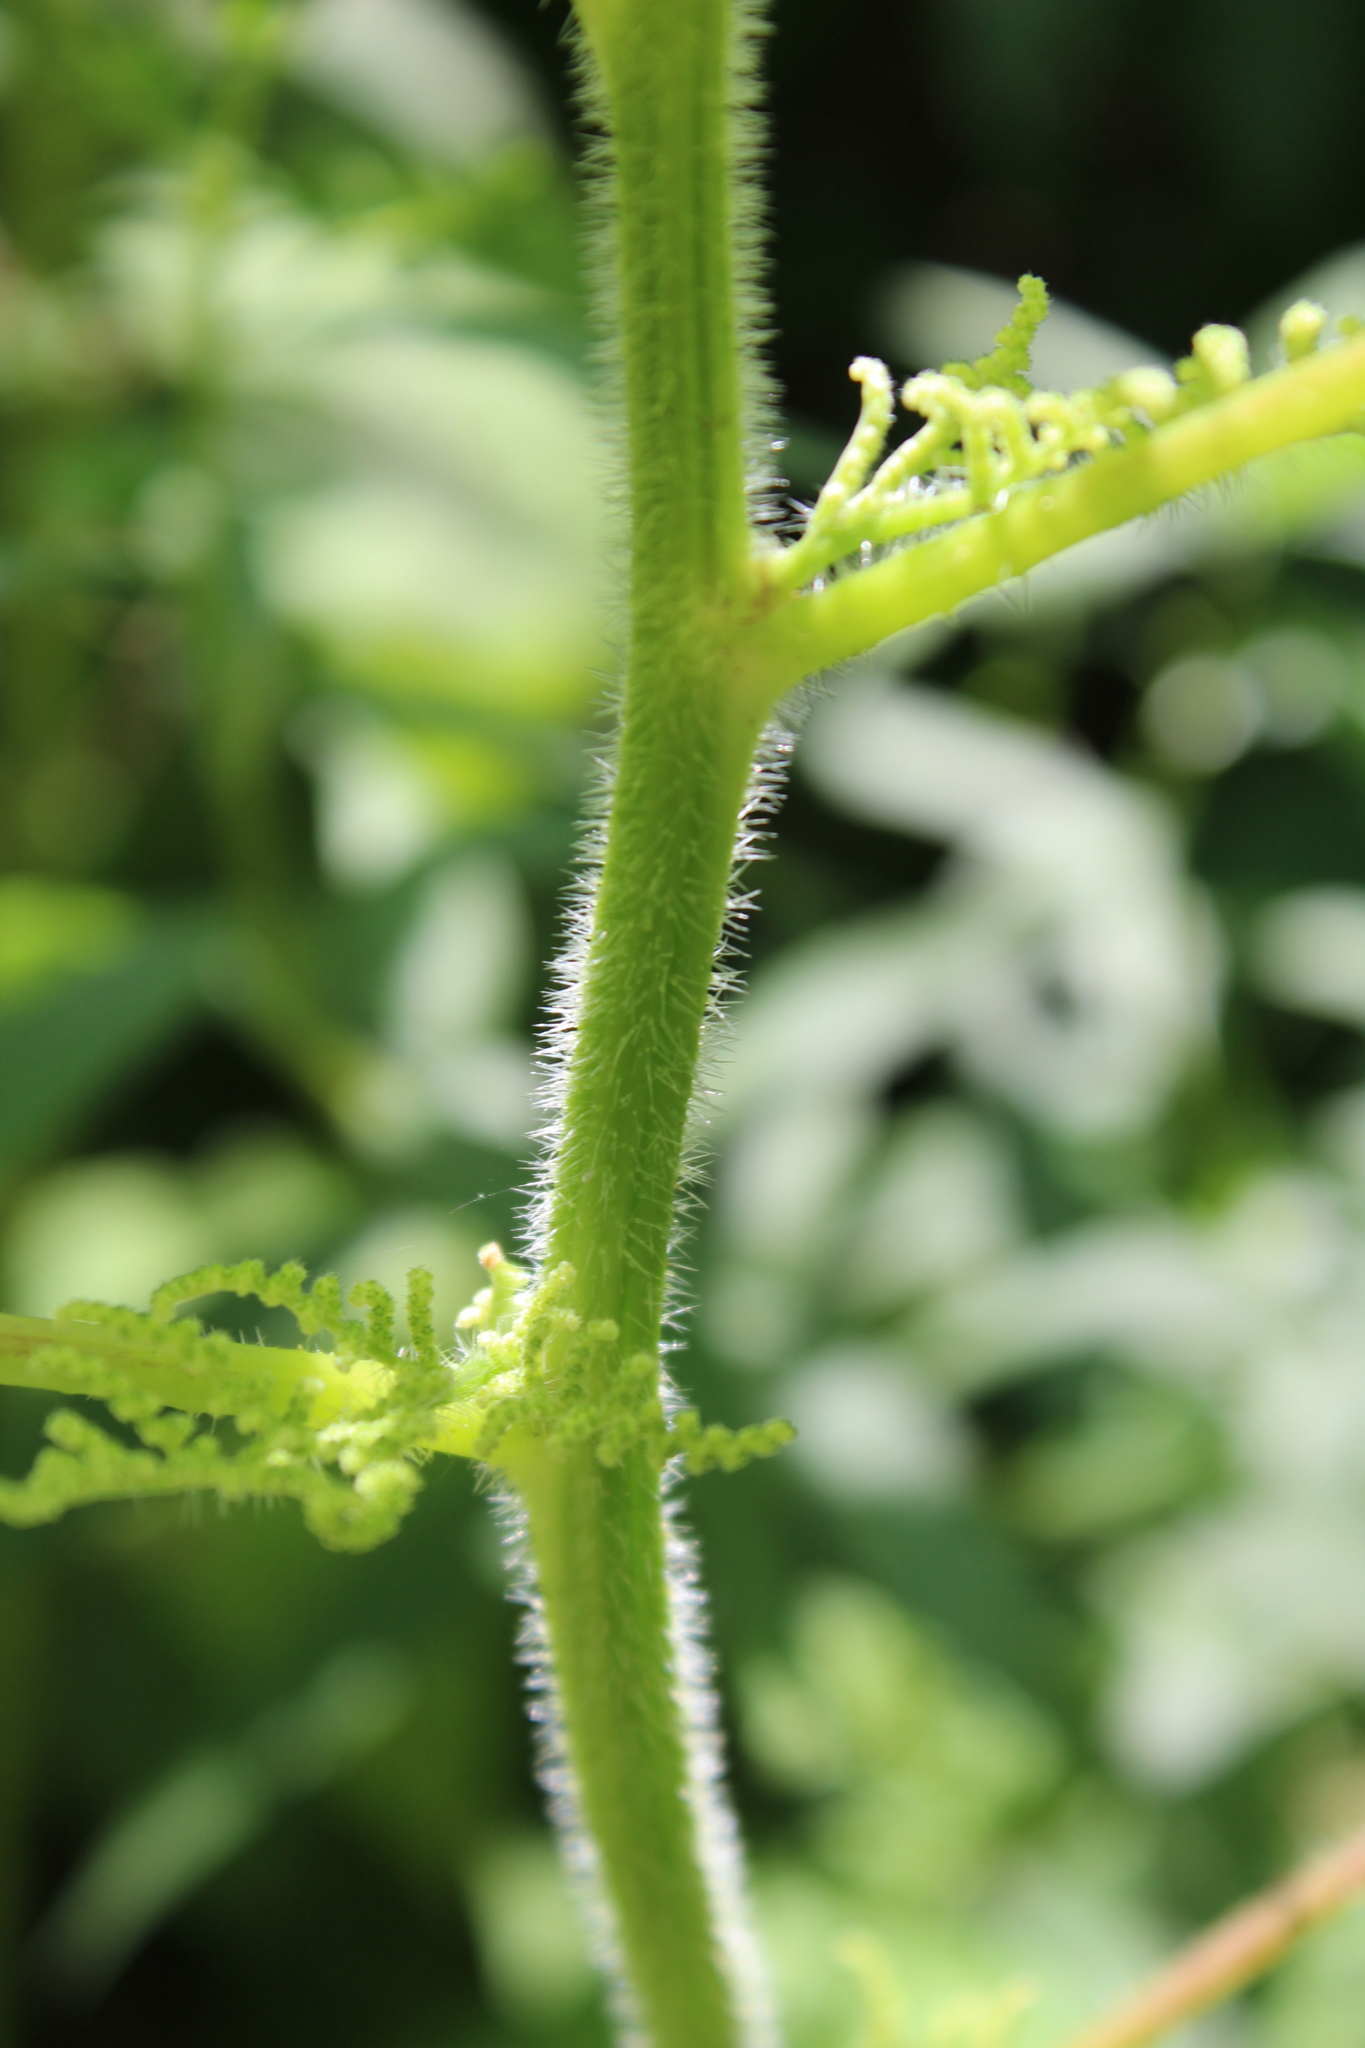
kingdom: Plantae
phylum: Tracheophyta
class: Magnoliopsida
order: Rosales
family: Urticaceae
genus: Laportea
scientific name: Laportea canadensis
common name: Canada nettle
